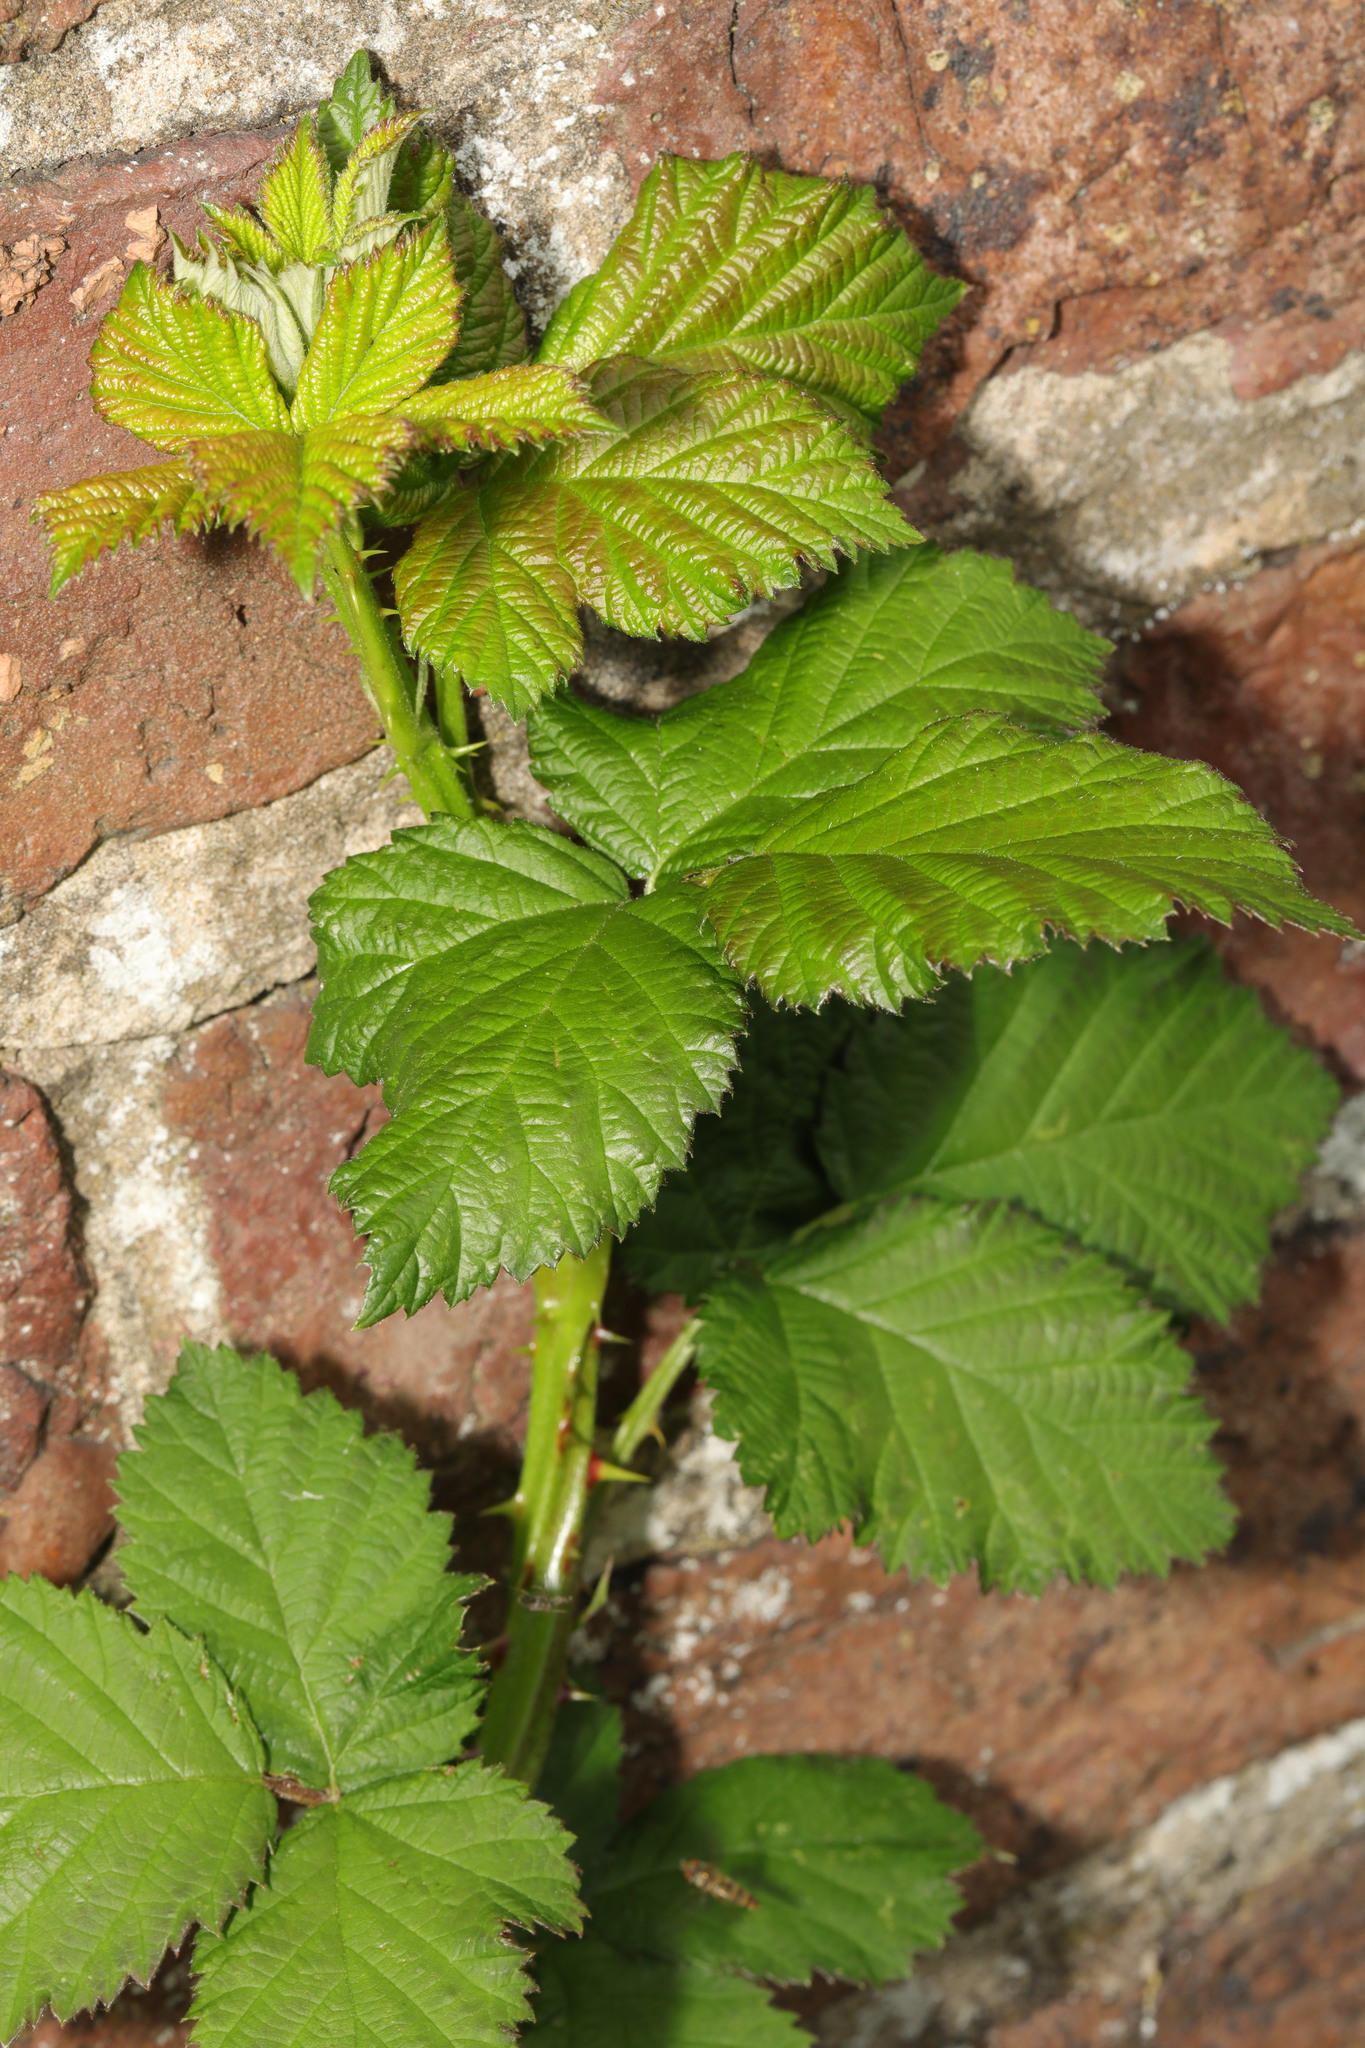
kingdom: Plantae
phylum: Tracheophyta
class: Magnoliopsida
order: Rosales
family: Rosaceae
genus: Rubus
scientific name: Rubus armeniacus
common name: Himalayan blackberry
